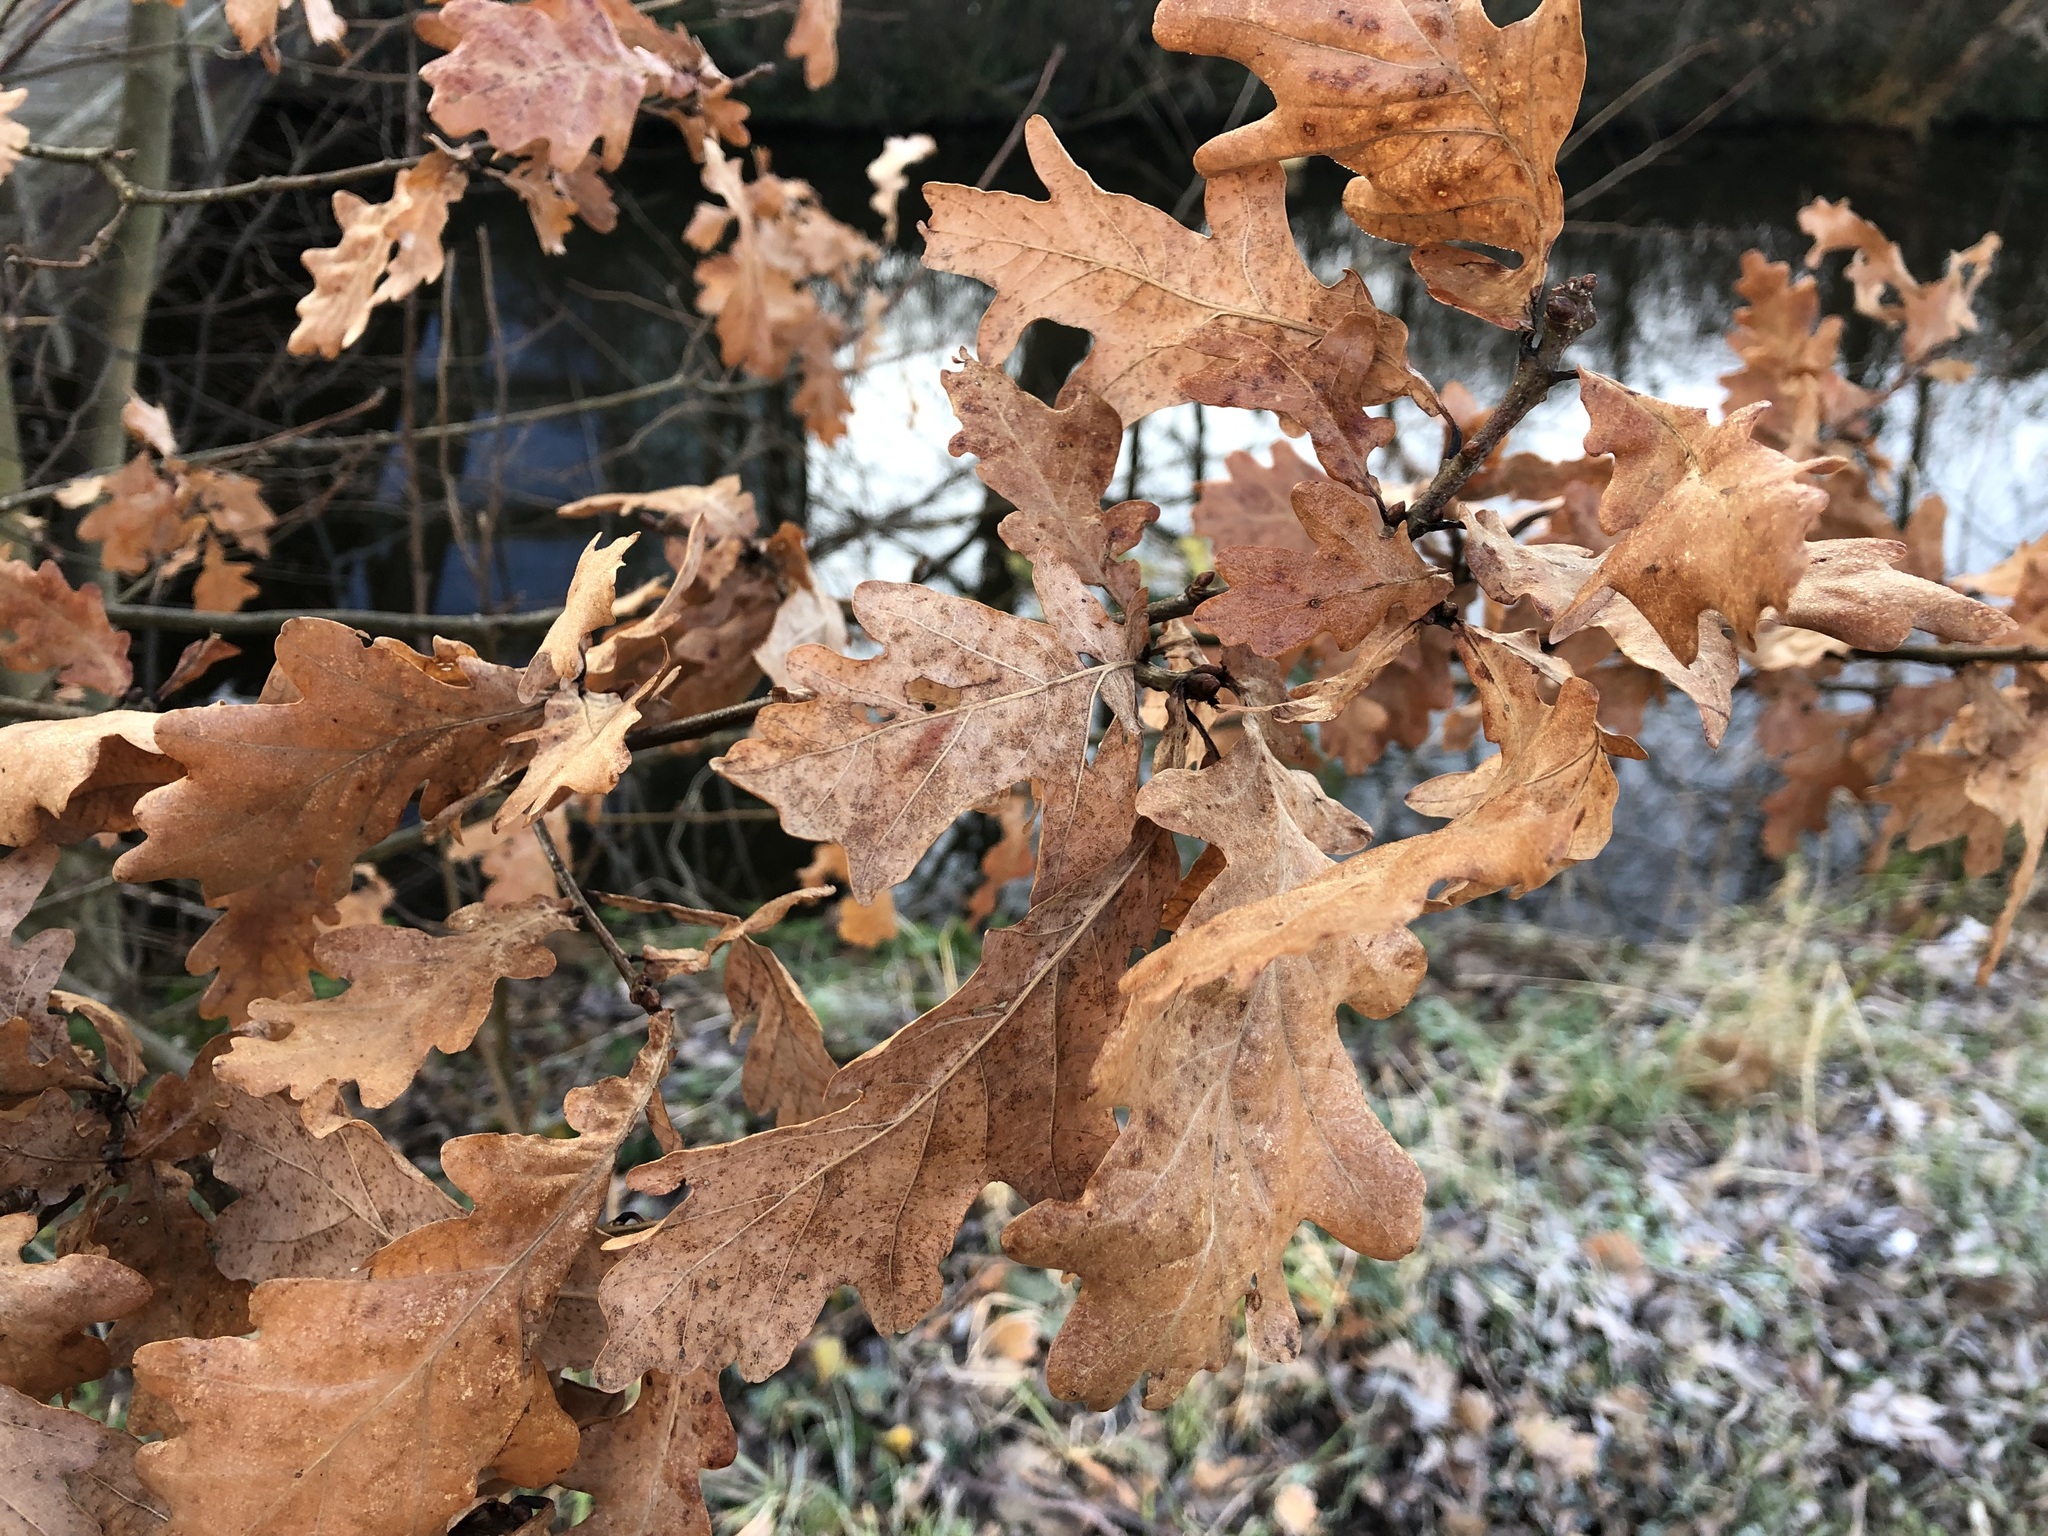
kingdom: Plantae
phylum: Tracheophyta
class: Magnoliopsida
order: Fagales
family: Fagaceae
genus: Quercus
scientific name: Quercus robur
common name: Pedunculate oak
